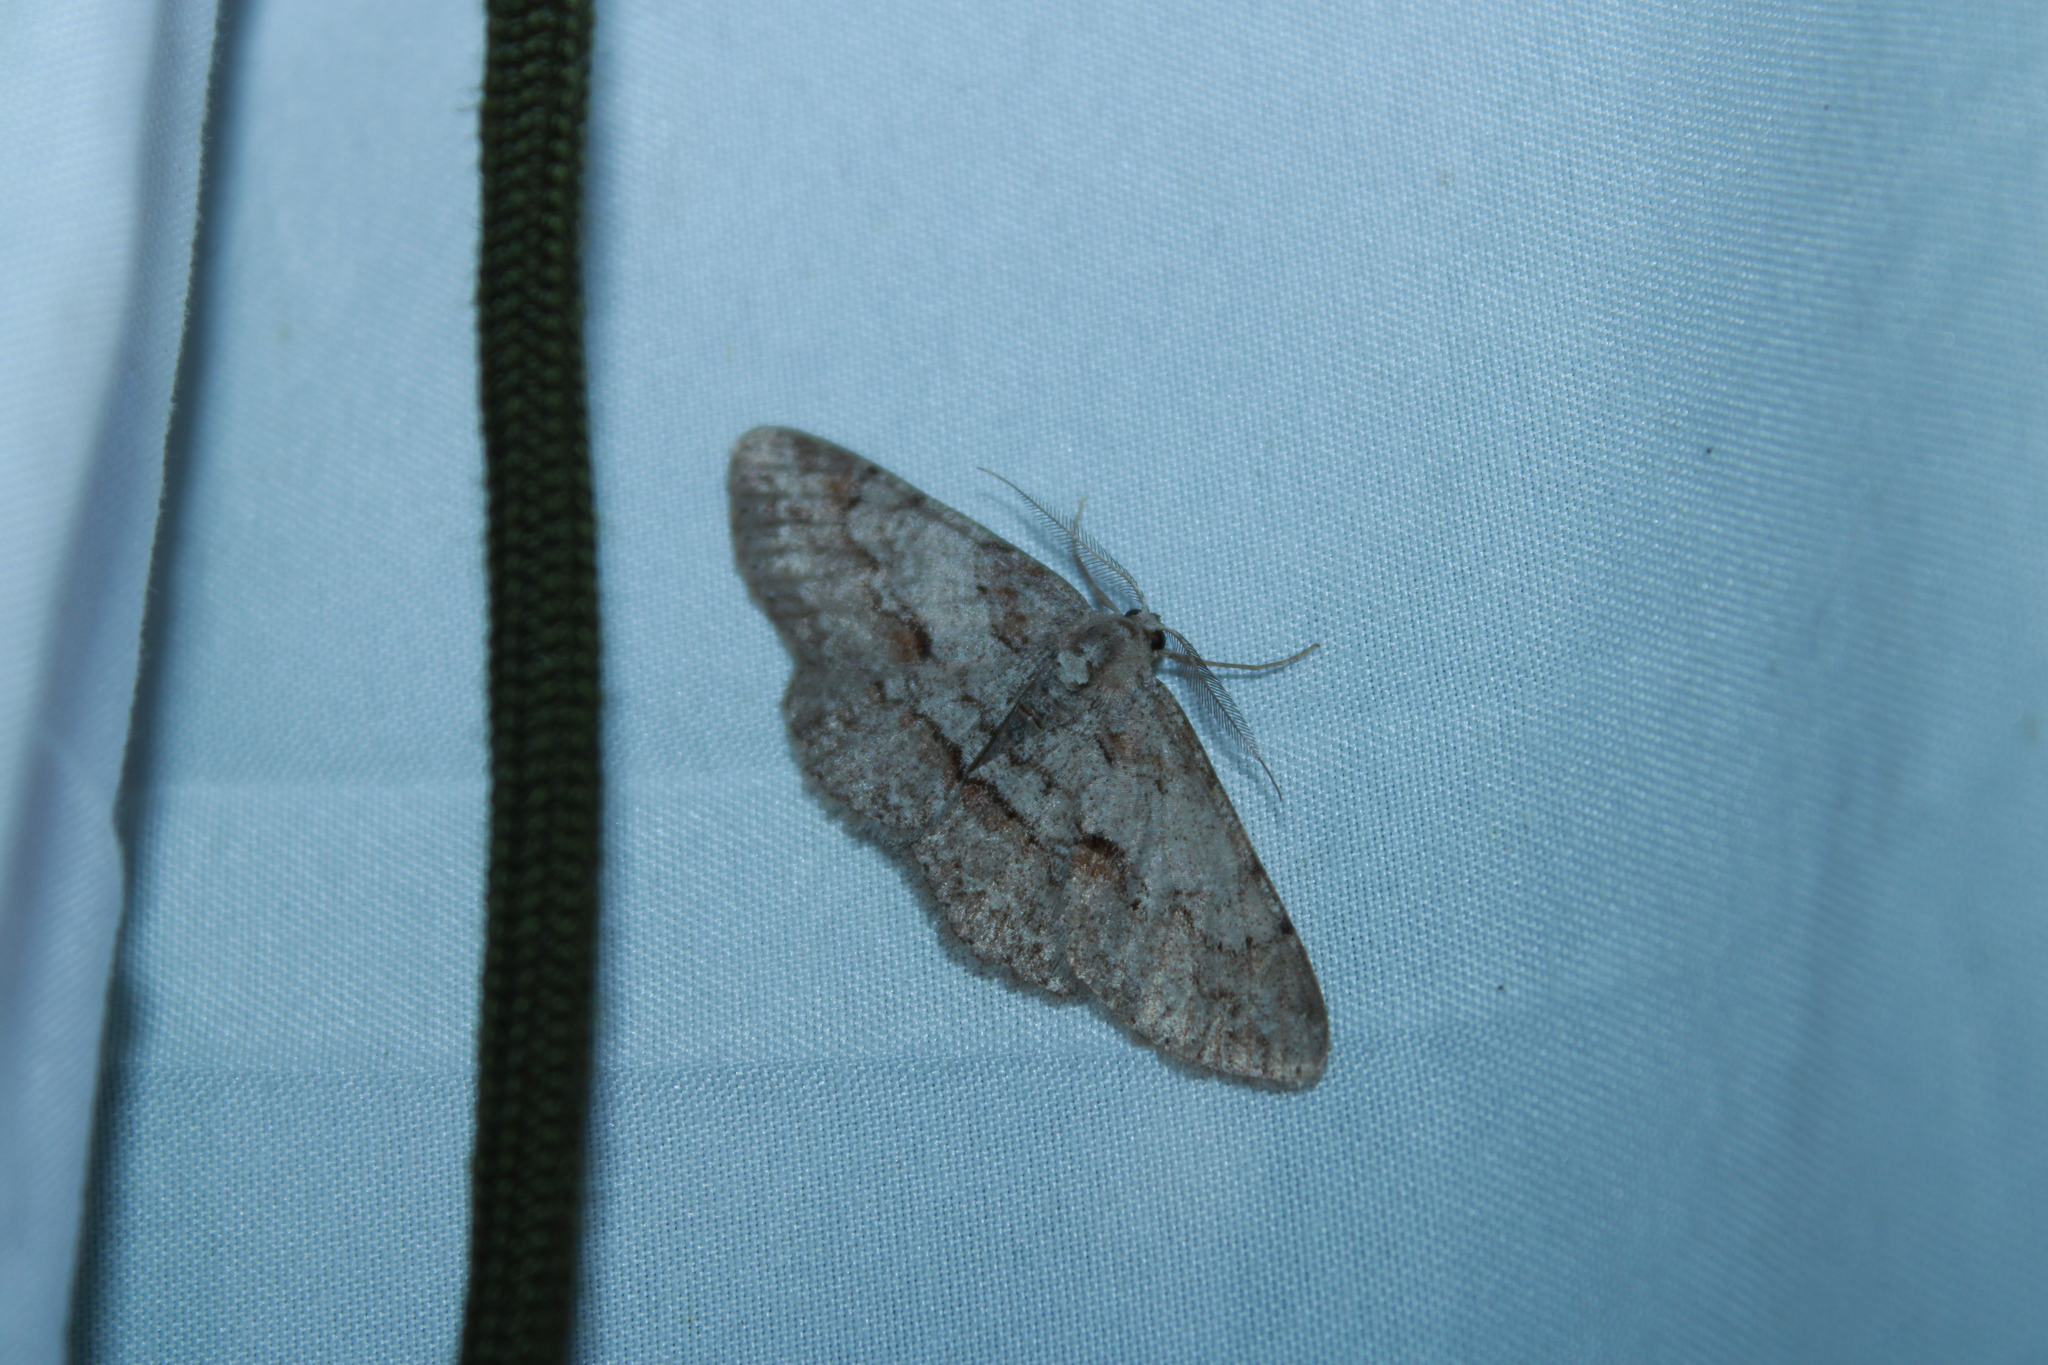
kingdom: Animalia
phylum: Arthropoda
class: Insecta
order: Lepidoptera
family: Geometridae
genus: Iridopsis
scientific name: Iridopsis vellivolata
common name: Large purplish gray
